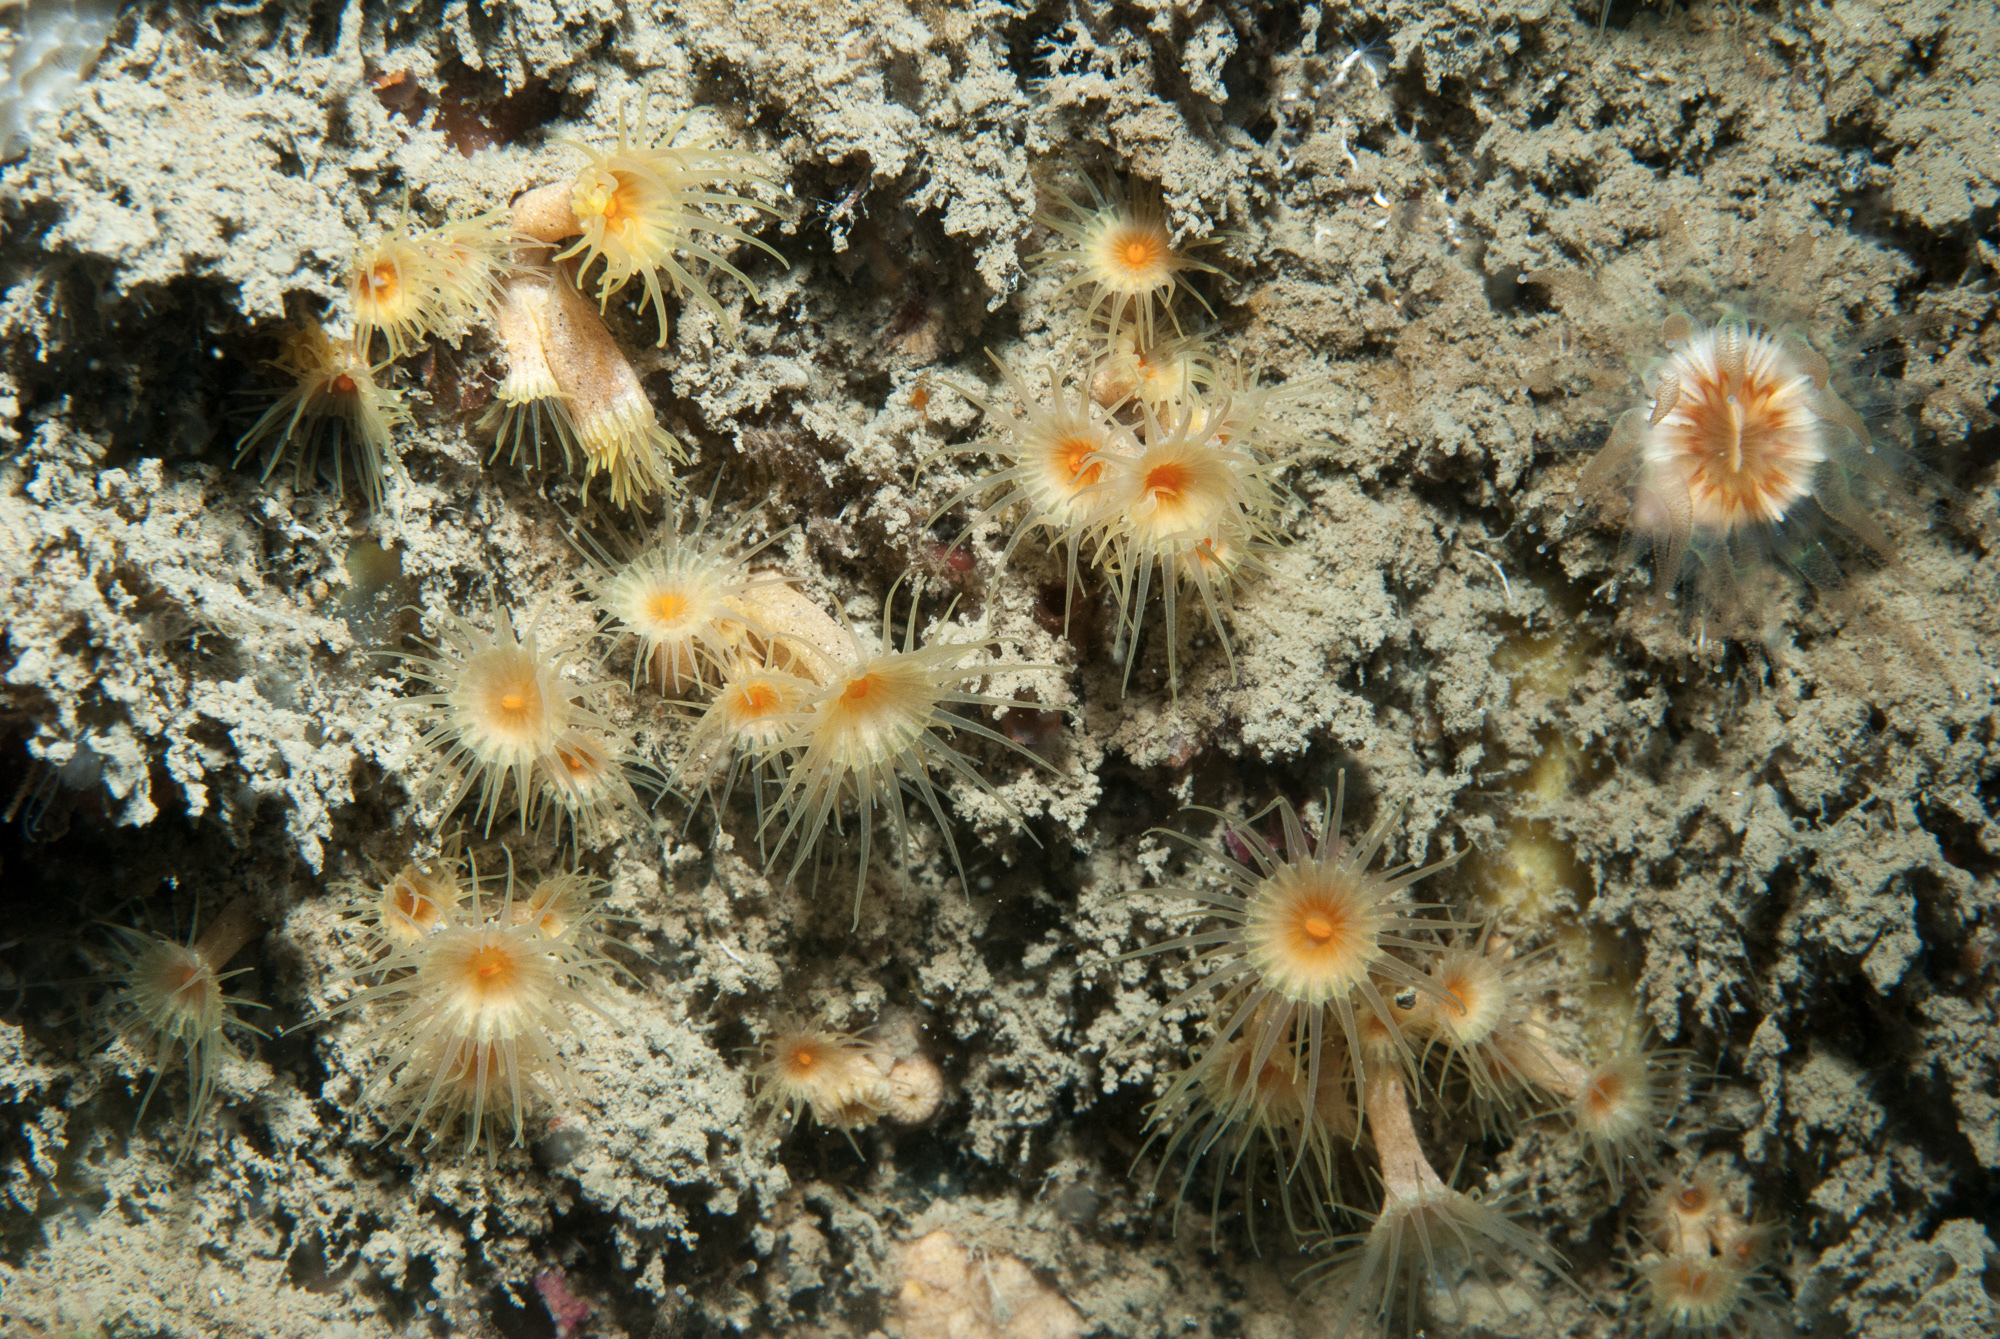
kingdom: Animalia
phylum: Cnidaria
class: Anthozoa
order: Zoantharia
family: Parazoanthidae
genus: Parazoanthus
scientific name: Parazoanthus axinellae
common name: Yellow cluster anemone
